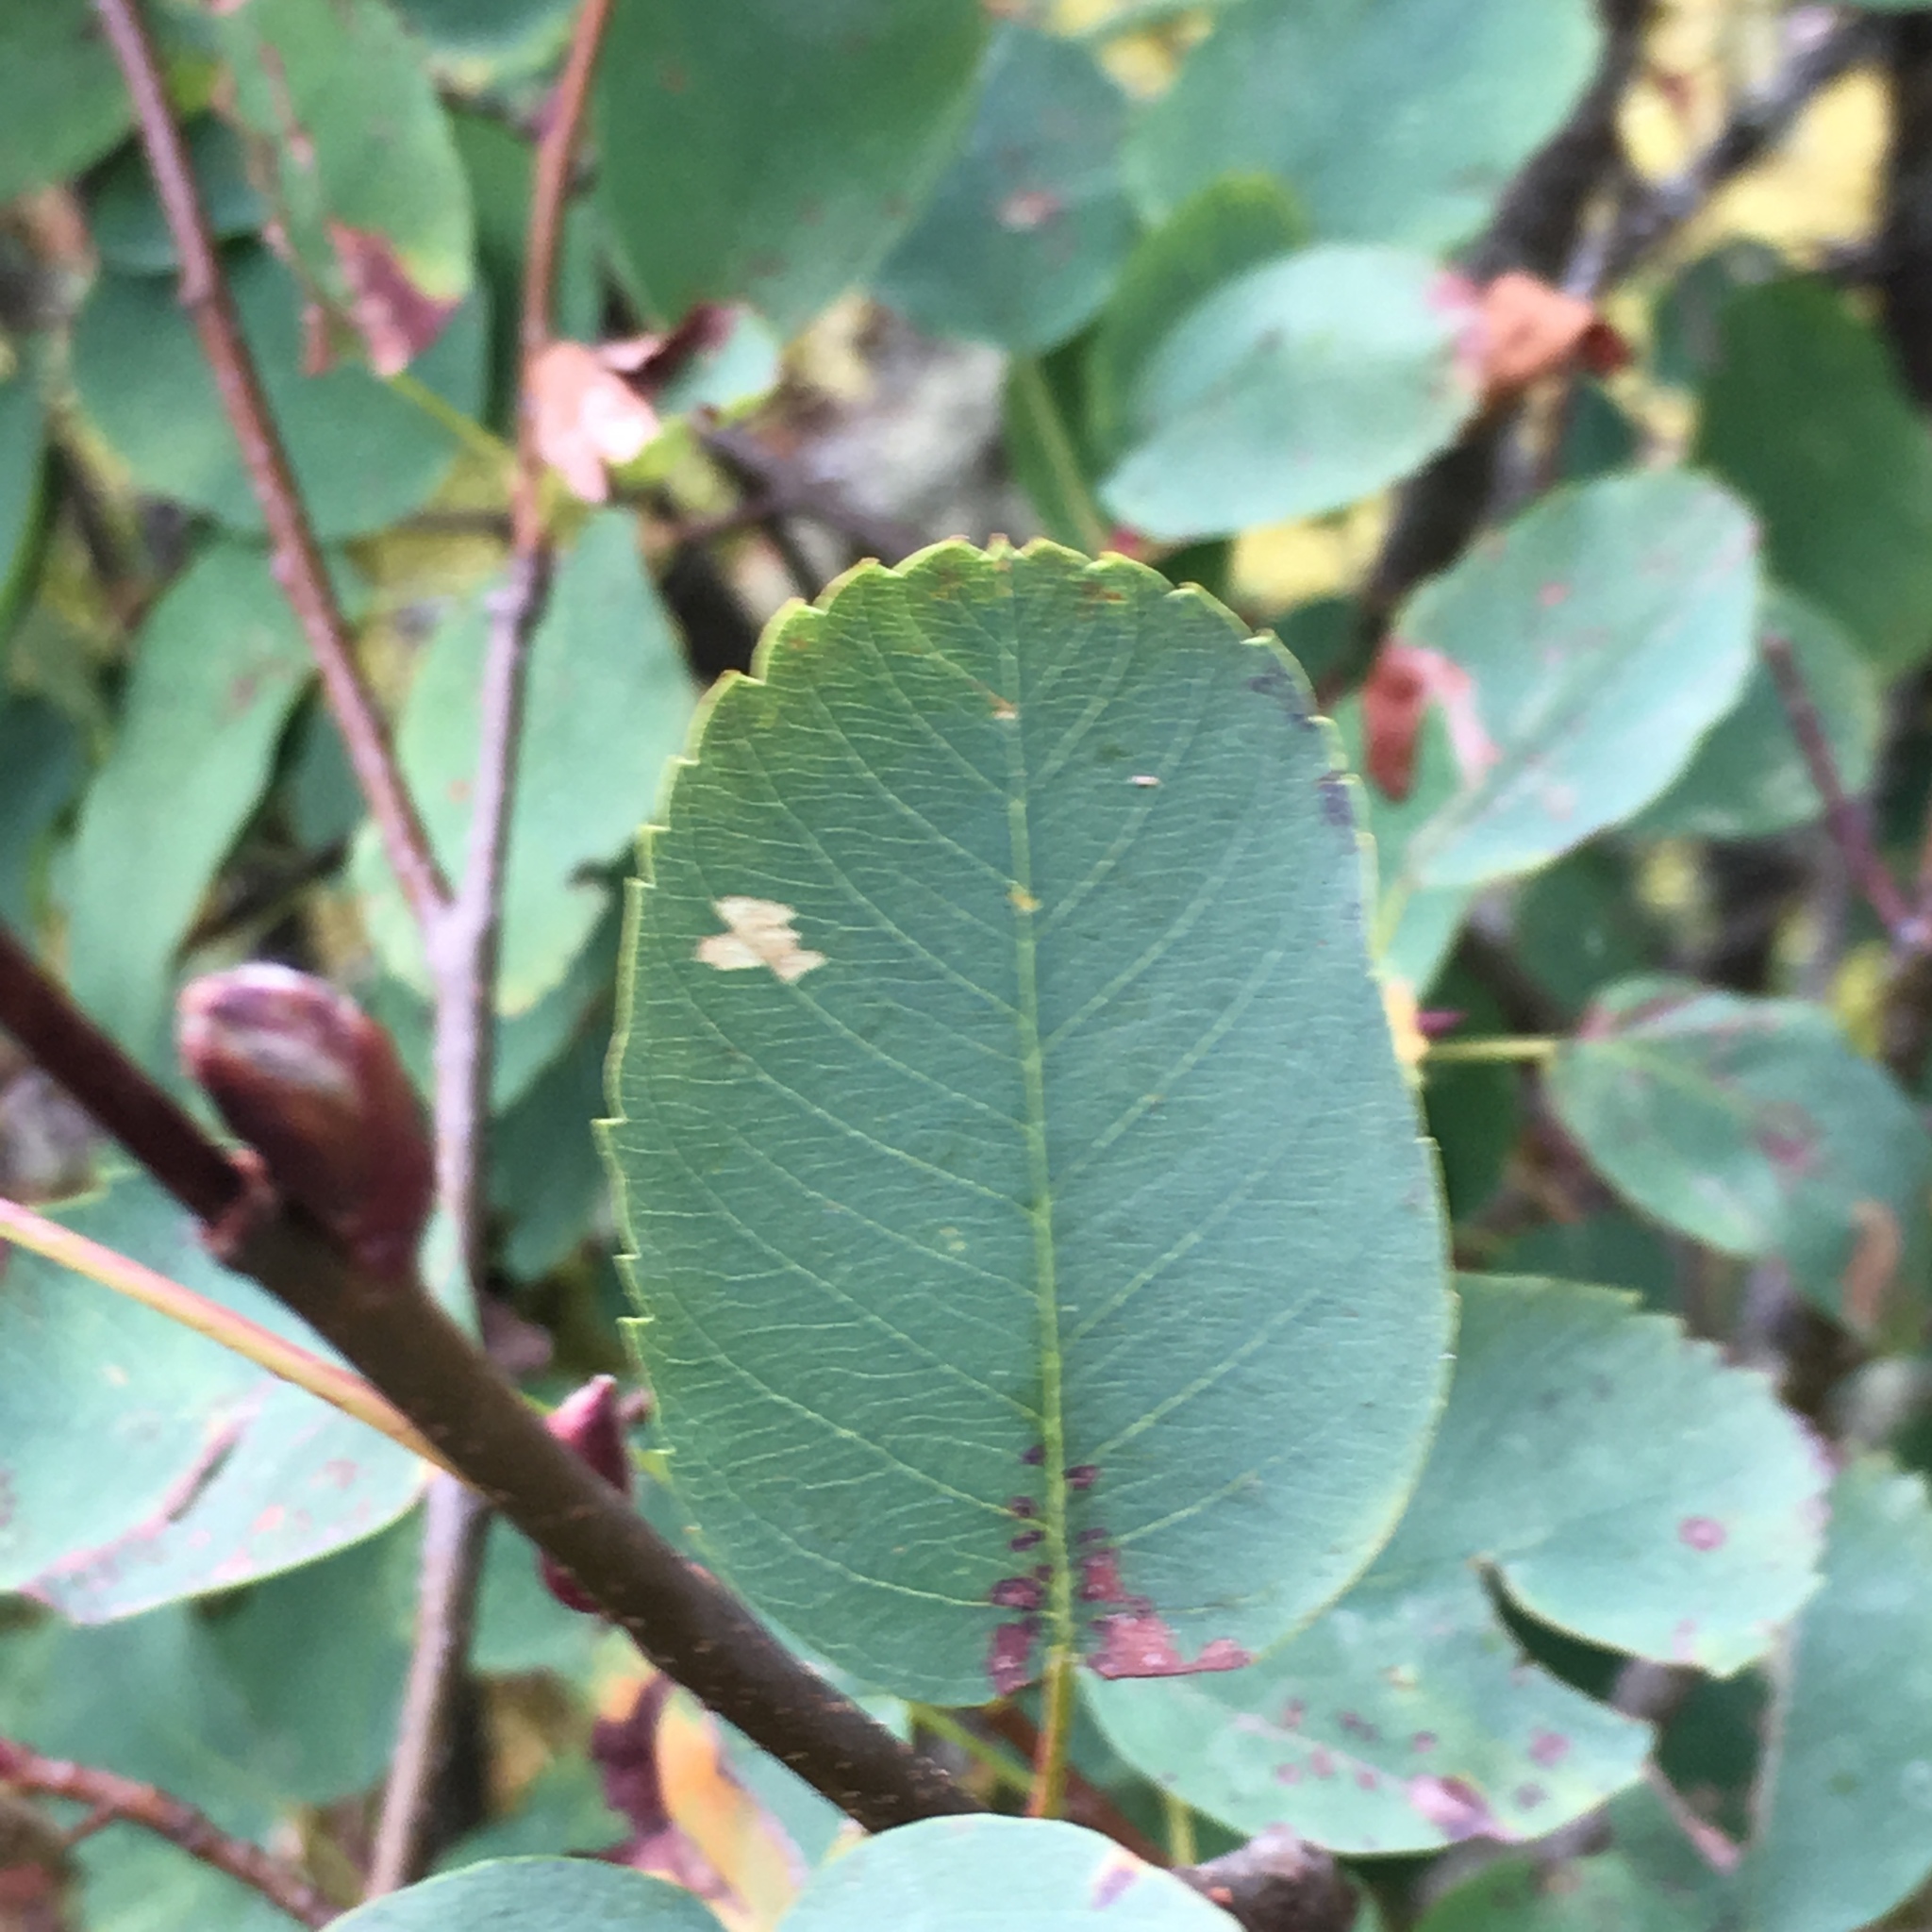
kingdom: Plantae
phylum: Tracheophyta
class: Magnoliopsida
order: Rosales
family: Rosaceae
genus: Amelanchier
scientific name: Amelanchier alnifolia
